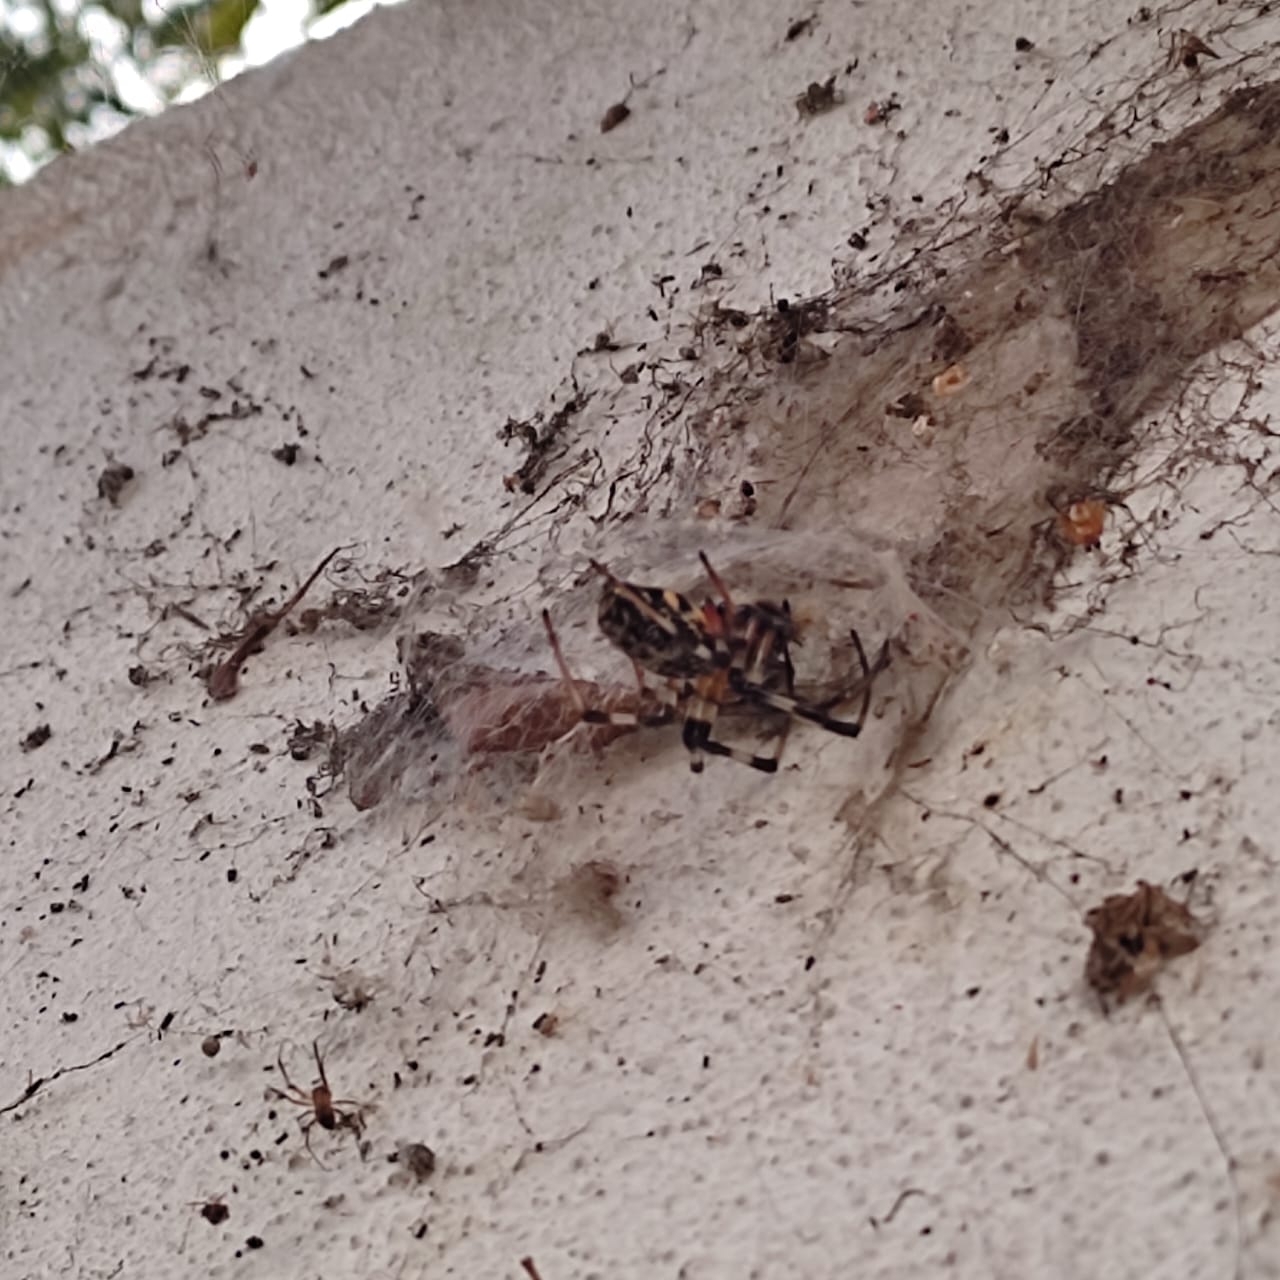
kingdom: Animalia
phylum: Arthropoda
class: Arachnida
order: Araneae
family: Araneidae
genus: Nephilingis
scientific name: Nephilingis cruentata
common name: African hermit spider
